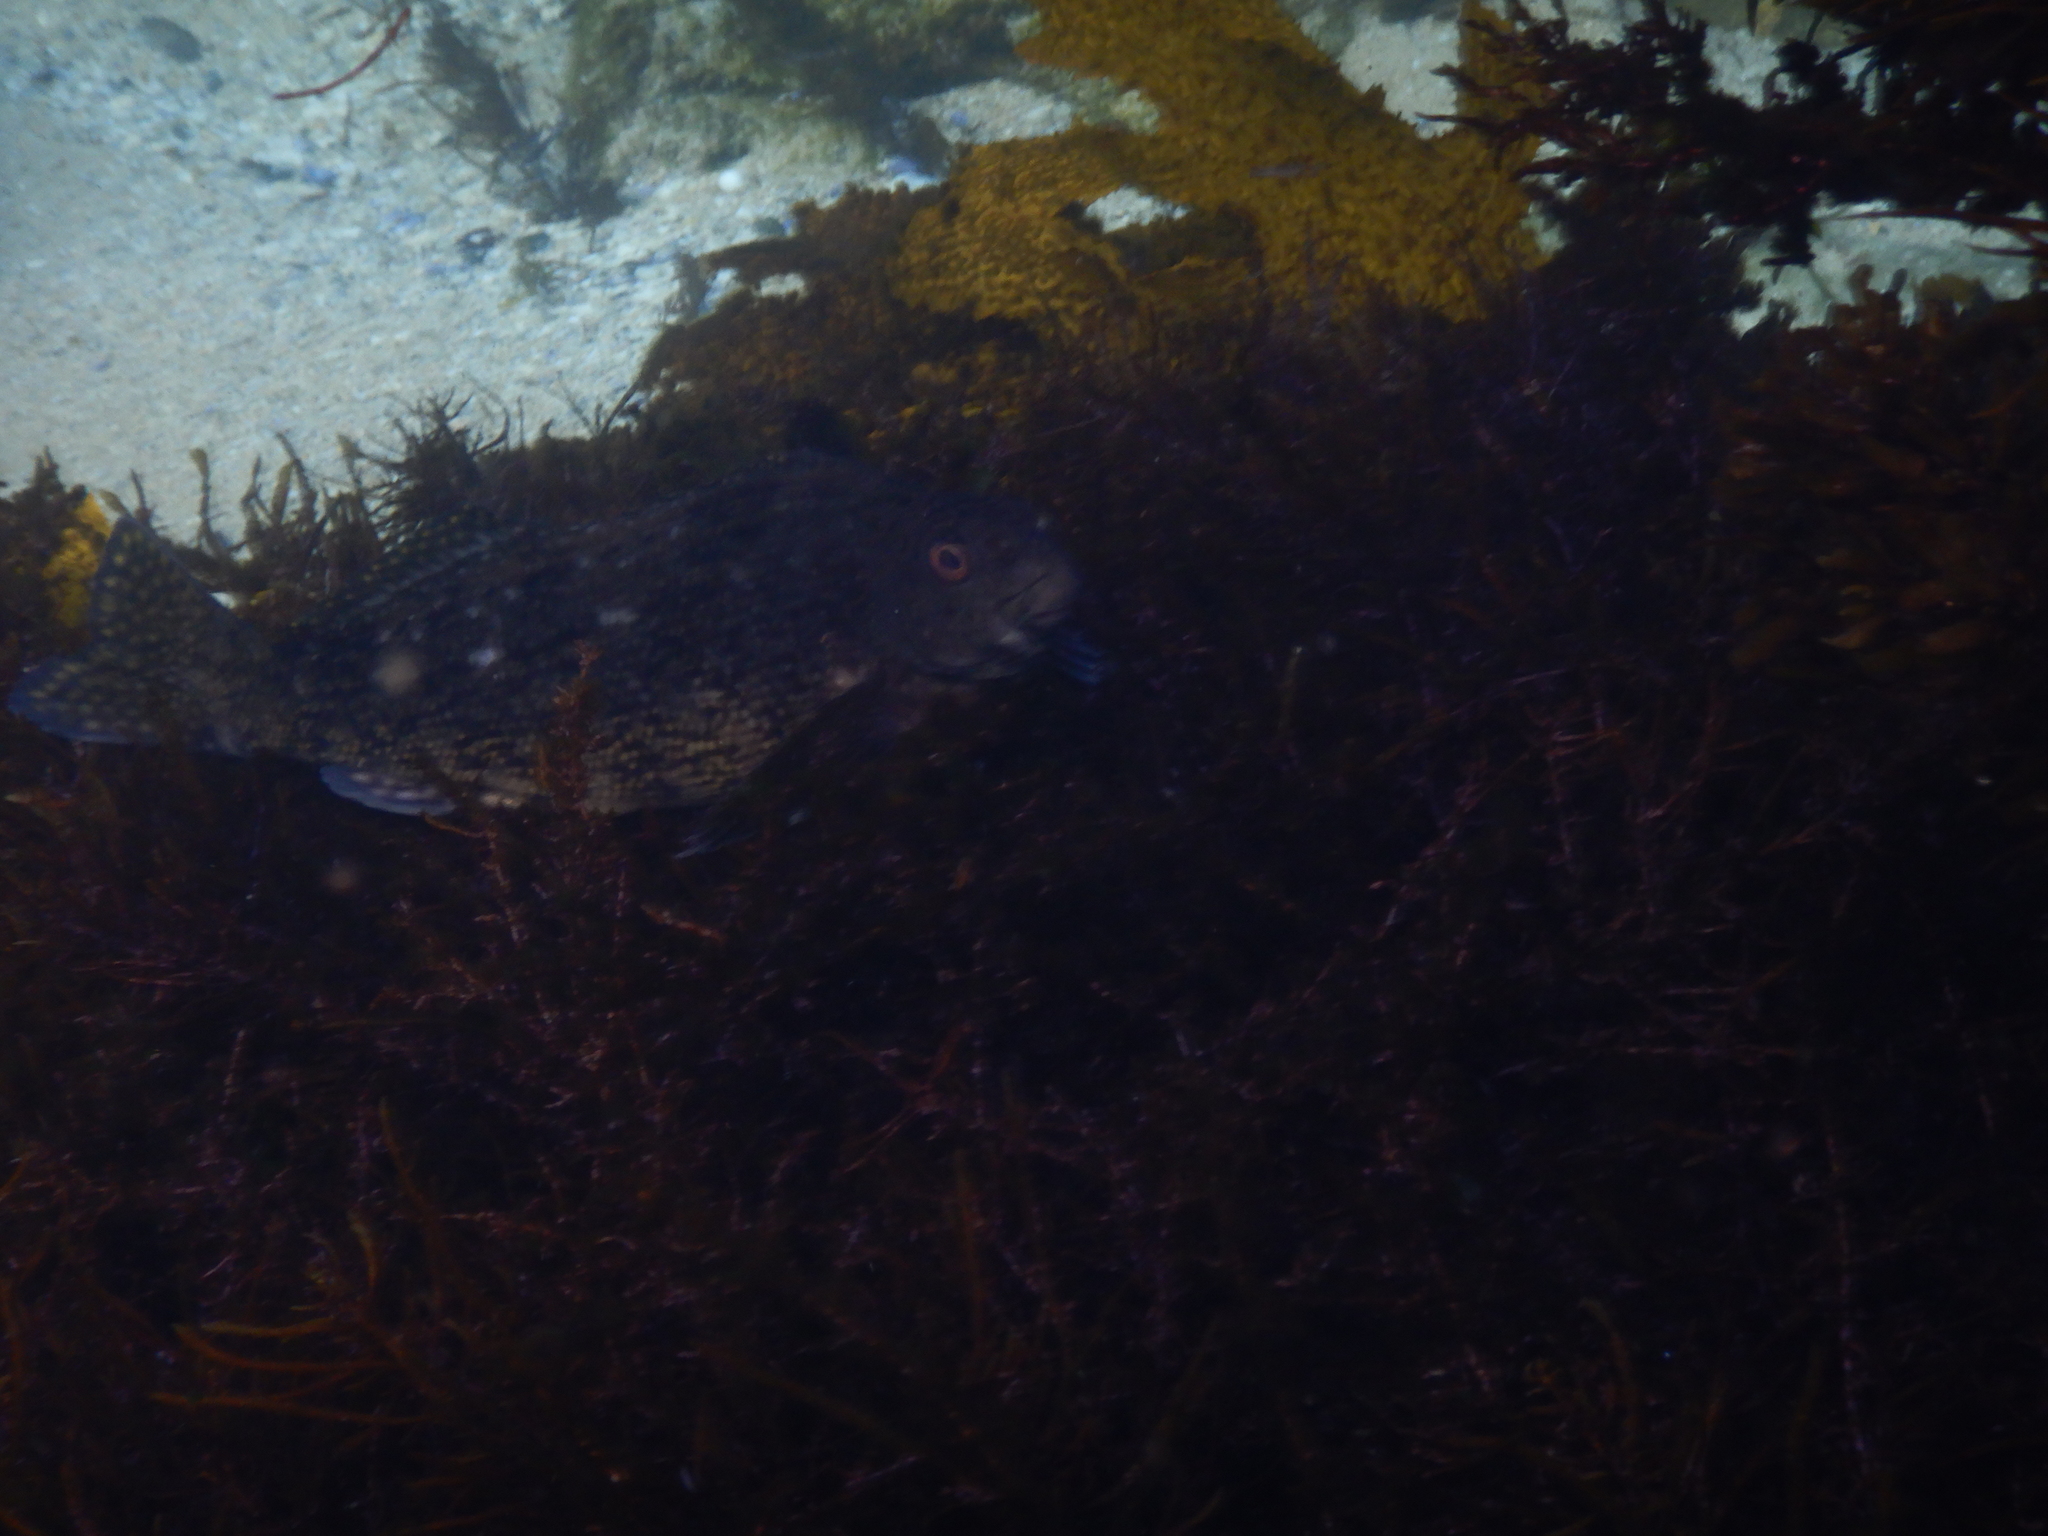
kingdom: Animalia
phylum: Chordata
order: Perciformes
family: Aplodactylidae
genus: Aplodactylus
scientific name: Aplodactylus lophodon
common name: Cockatoo fish
